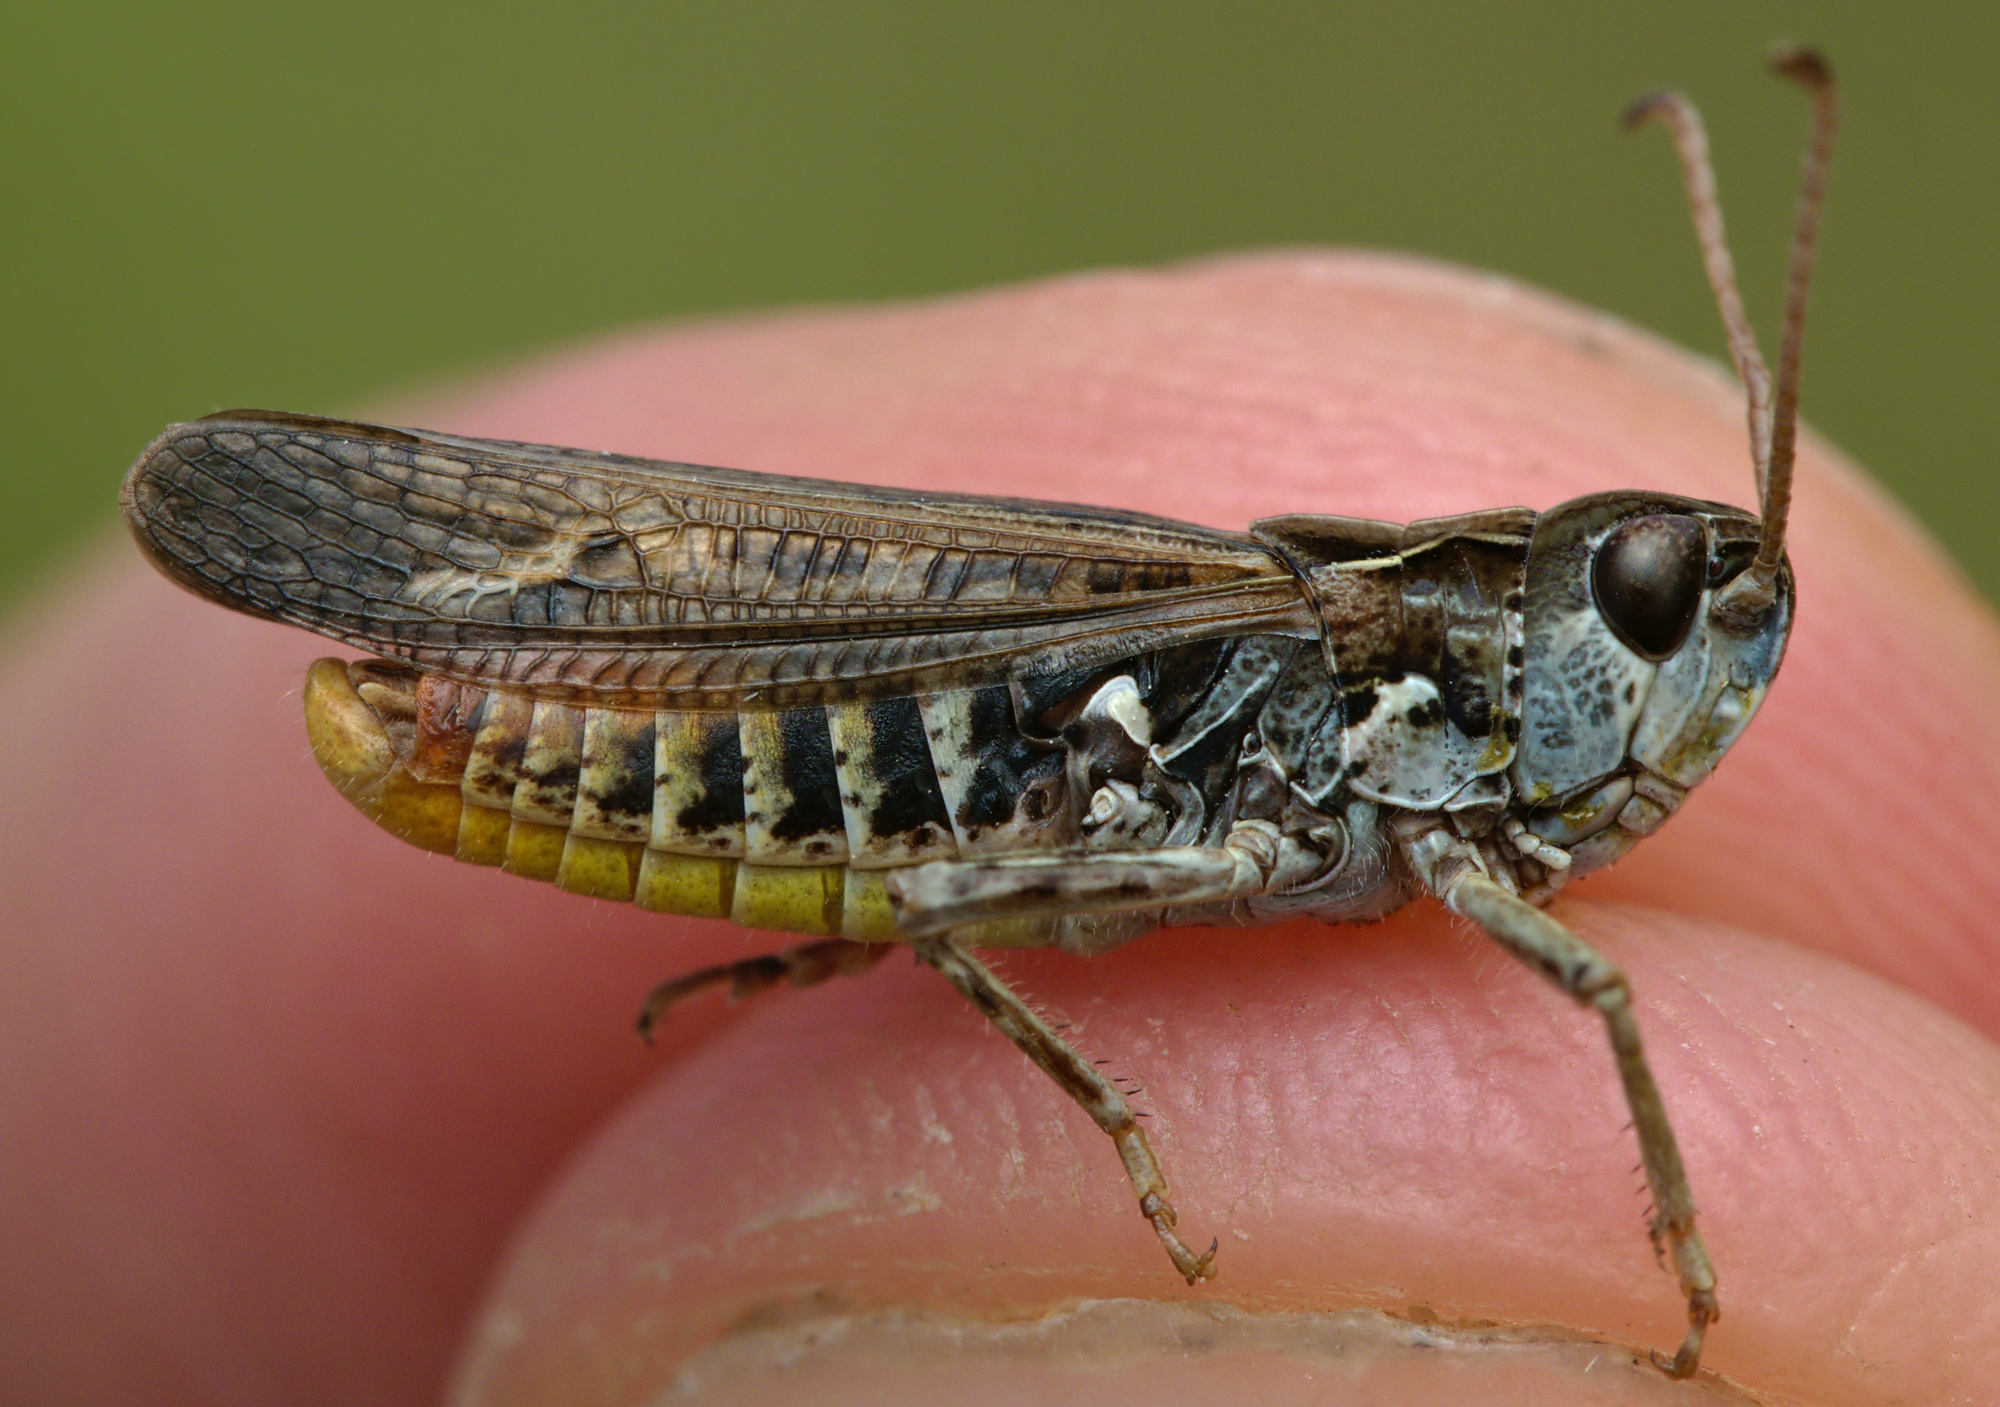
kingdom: Animalia
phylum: Arthropoda
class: Insecta
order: Orthoptera
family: Acrididae
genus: Myrmeleotettix
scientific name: Myrmeleotettix maculatus
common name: Mottled grasshopper
